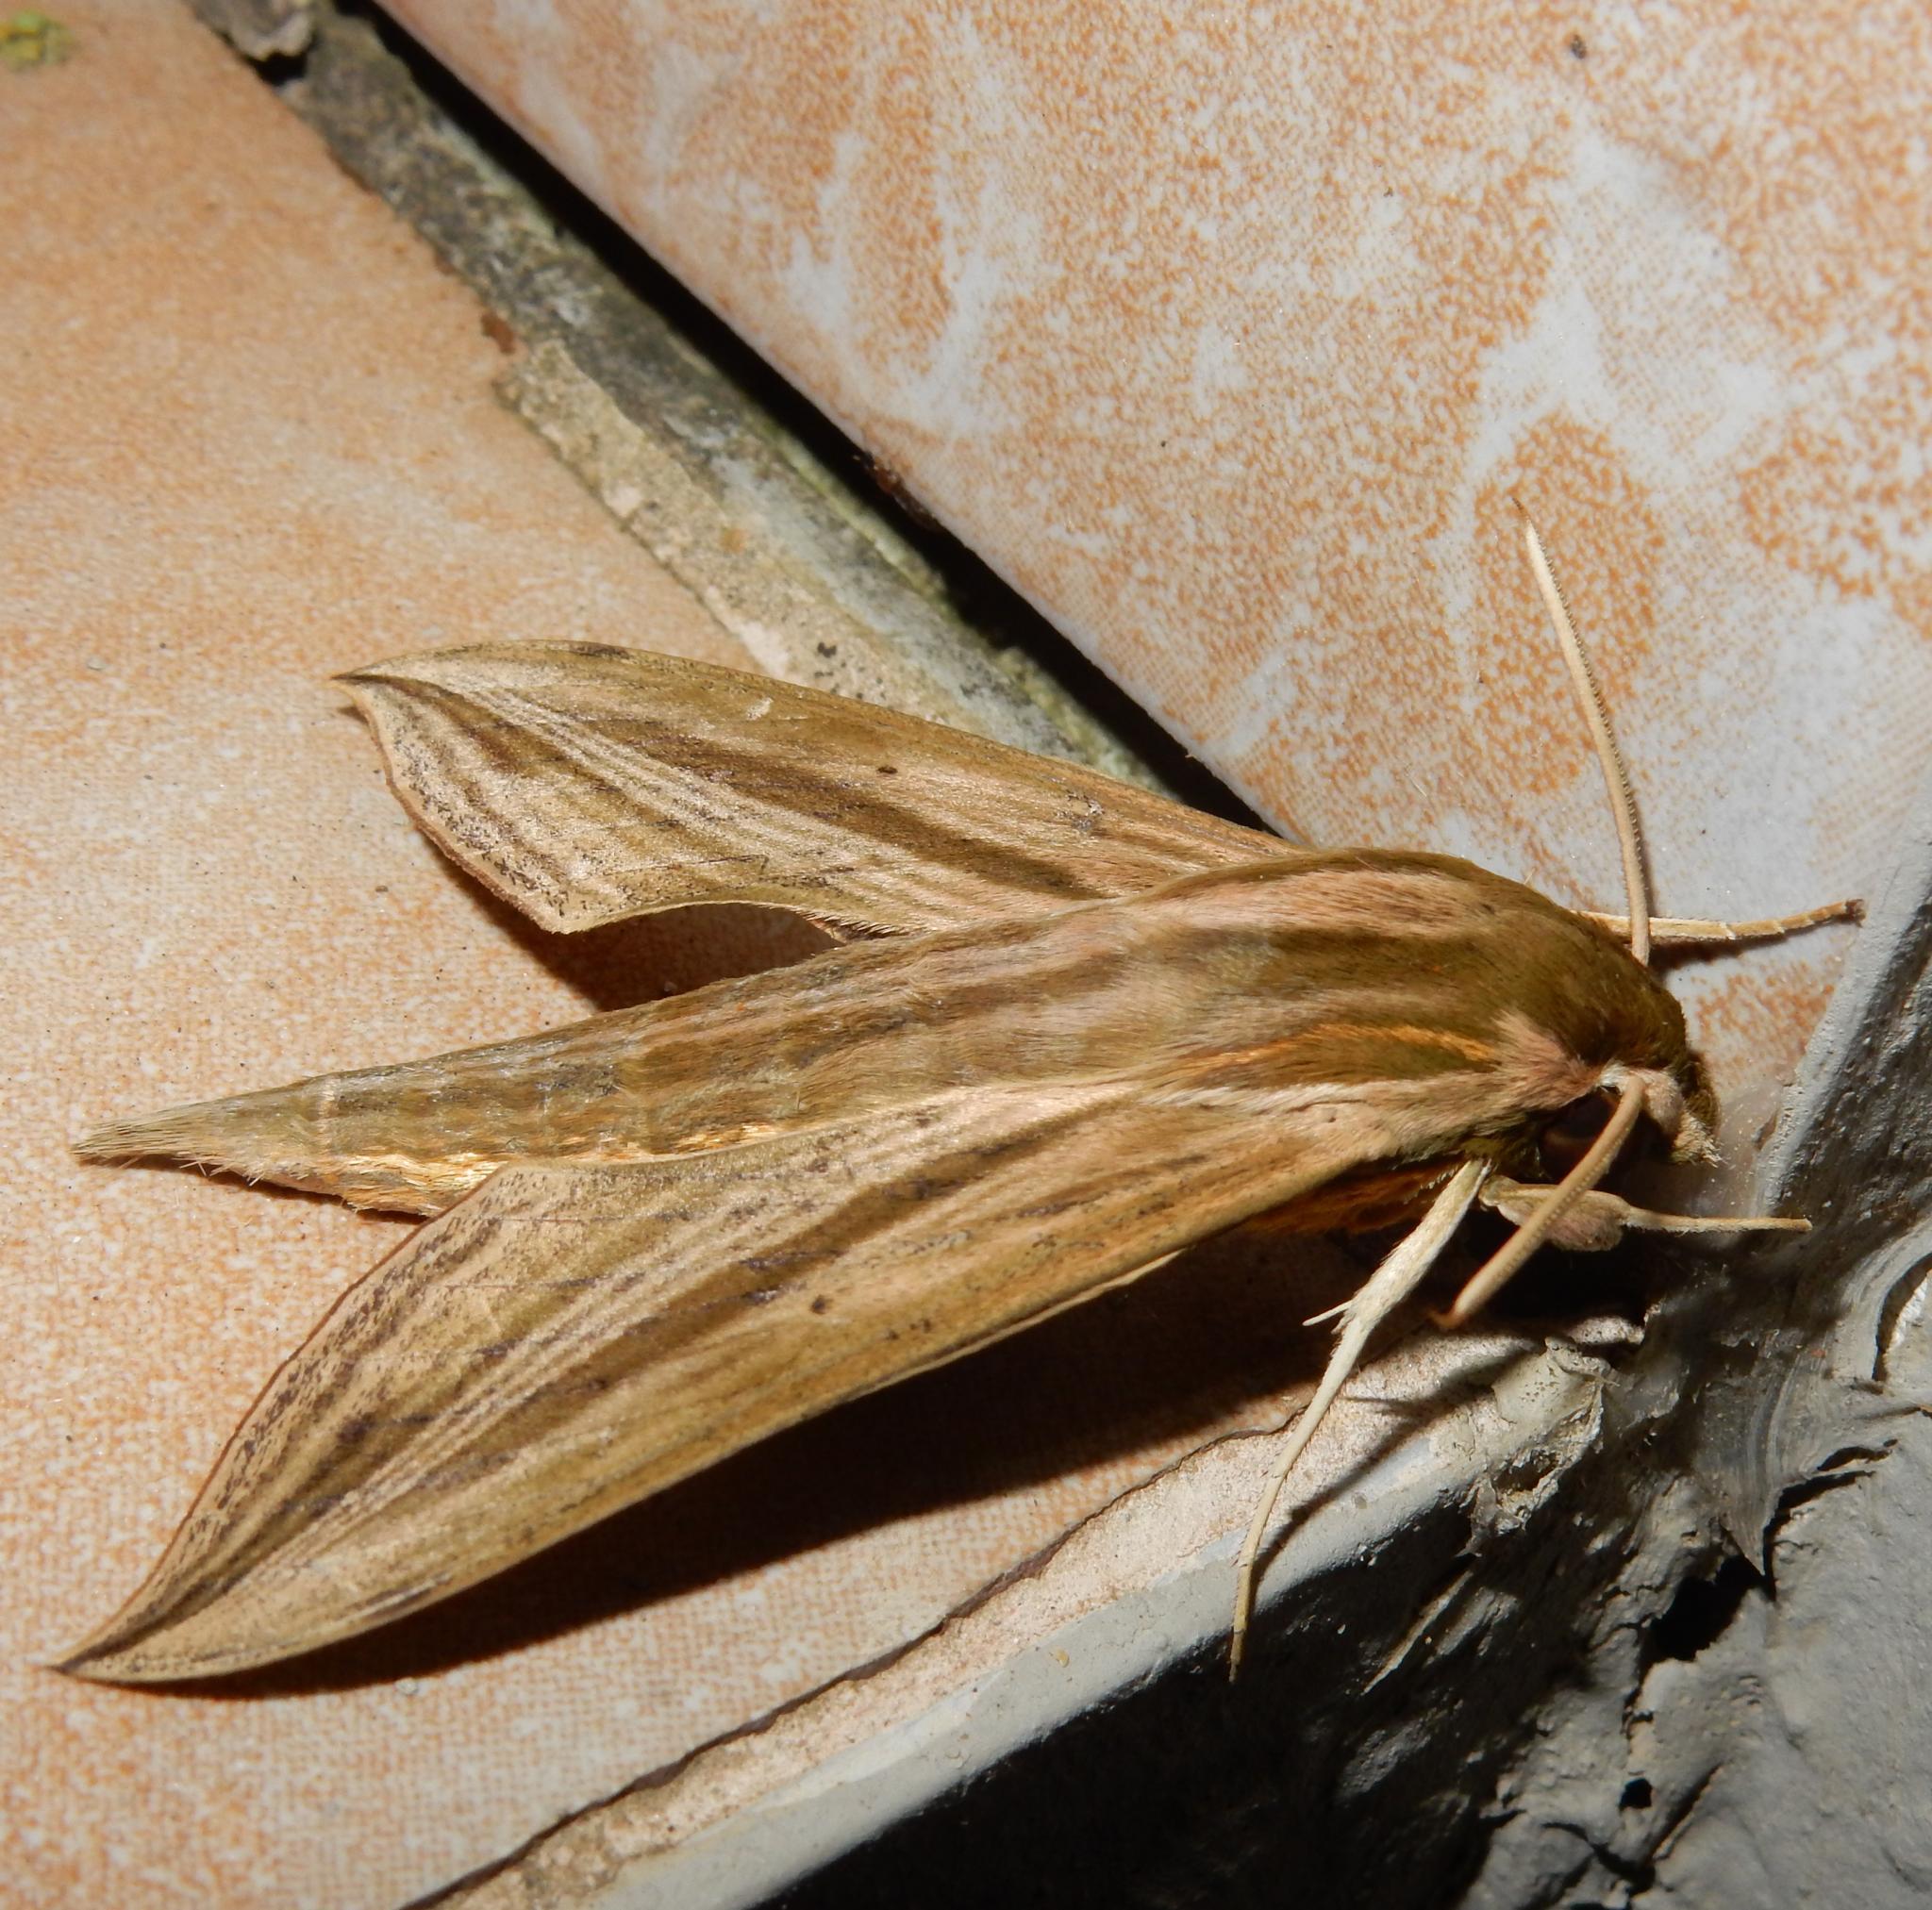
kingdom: Animalia
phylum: Arthropoda
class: Insecta
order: Lepidoptera
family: Sphingidae
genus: Hippotion
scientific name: Hippotion eson
